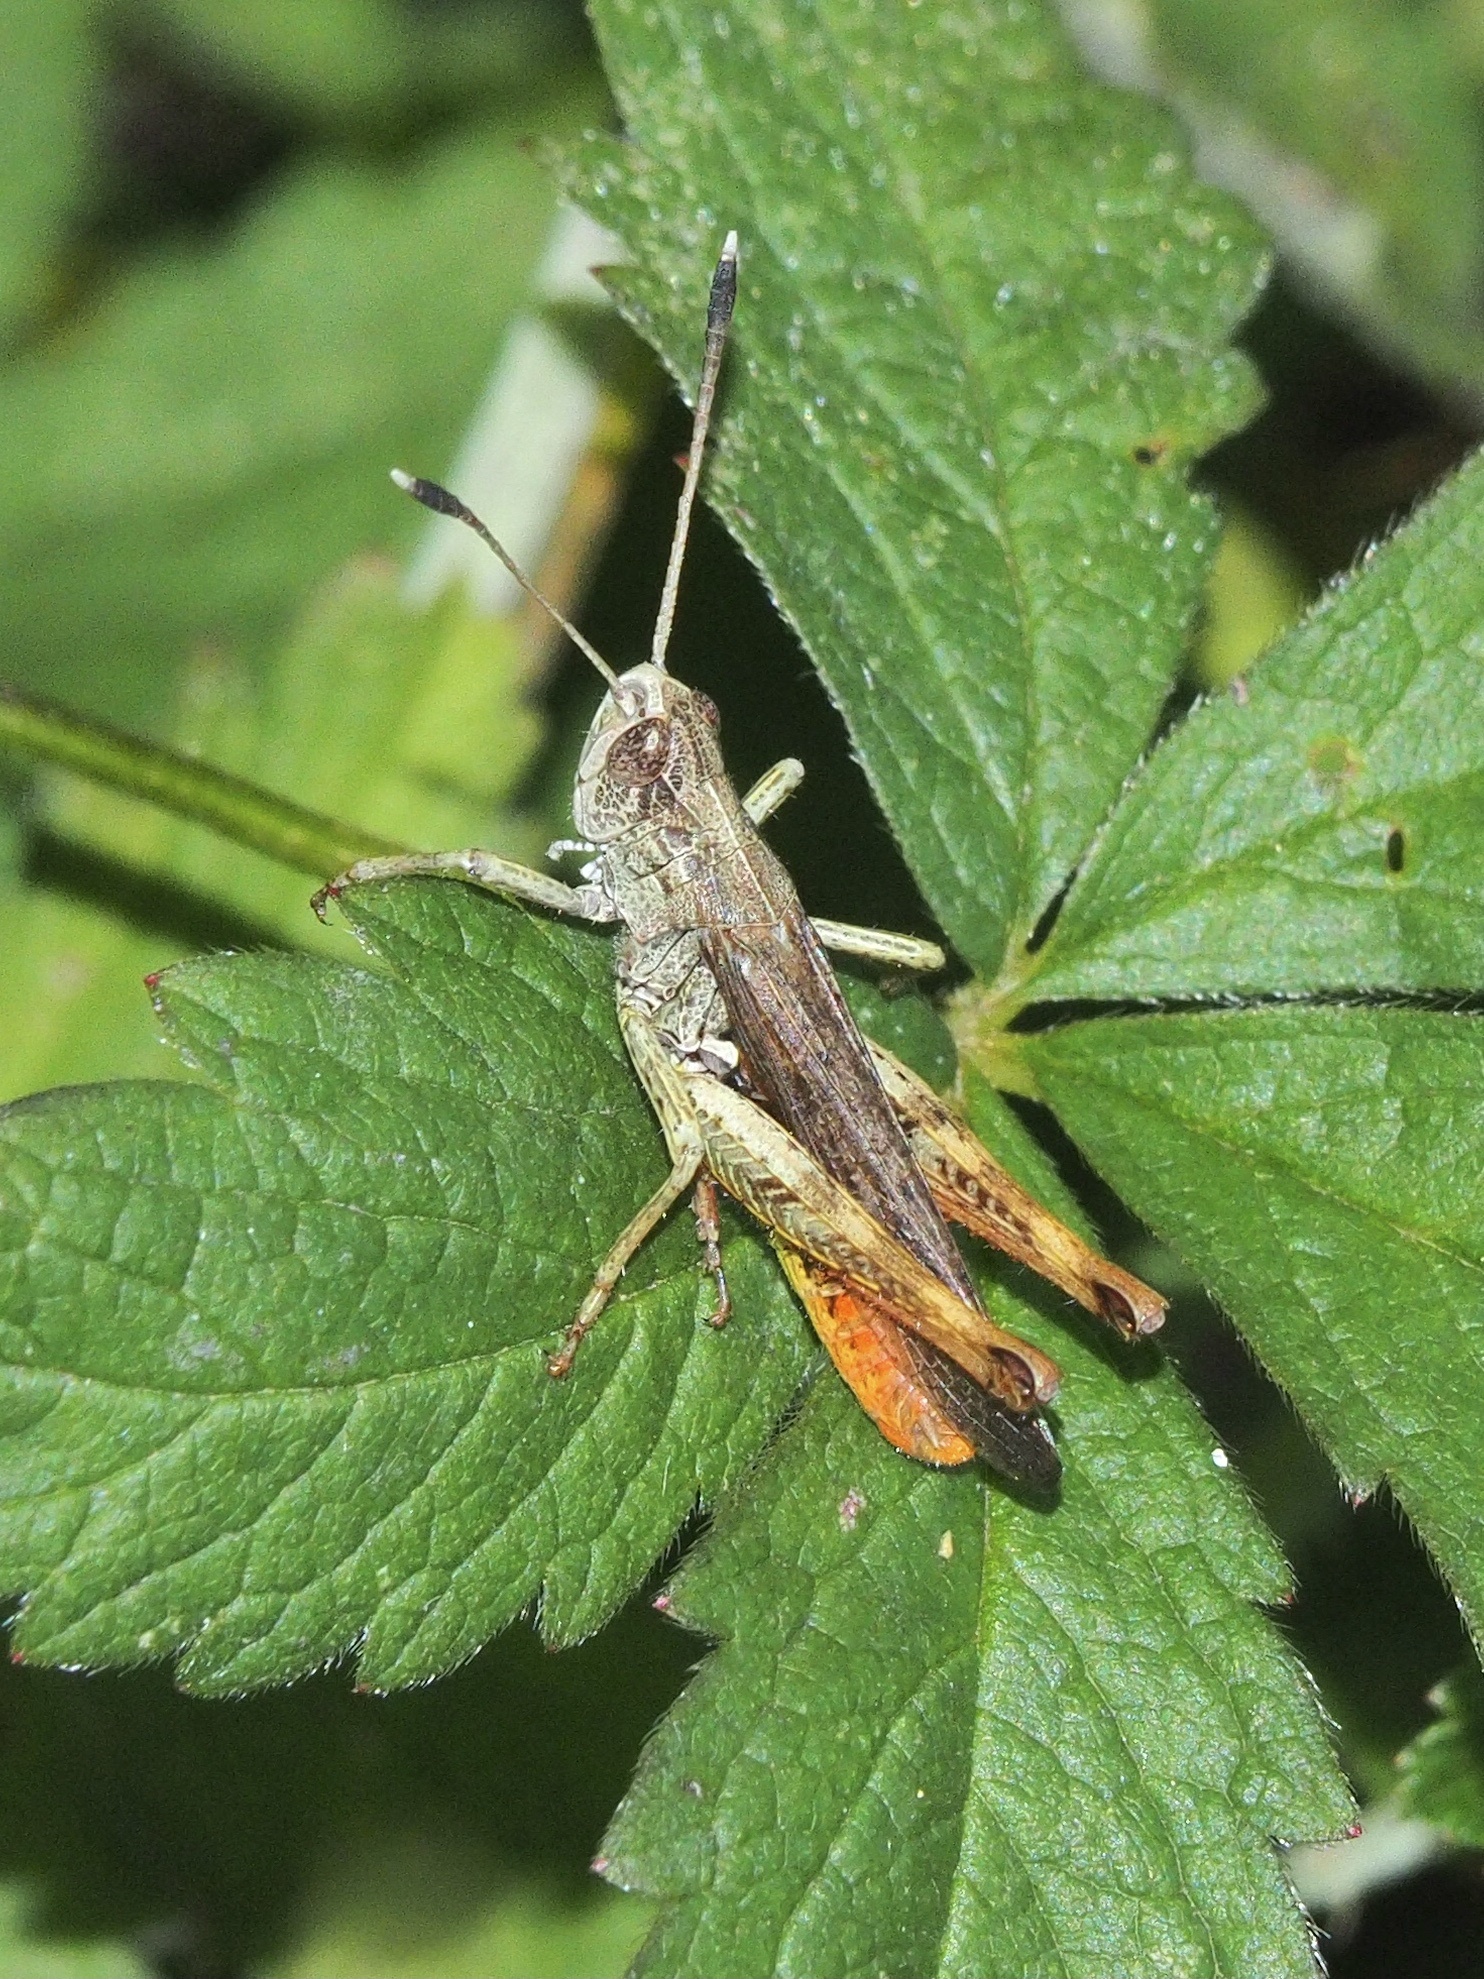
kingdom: Animalia
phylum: Arthropoda
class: Insecta
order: Orthoptera
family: Acrididae
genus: Gomphocerippus
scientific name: Gomphocerippus rufus
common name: Rufous grasshopper
